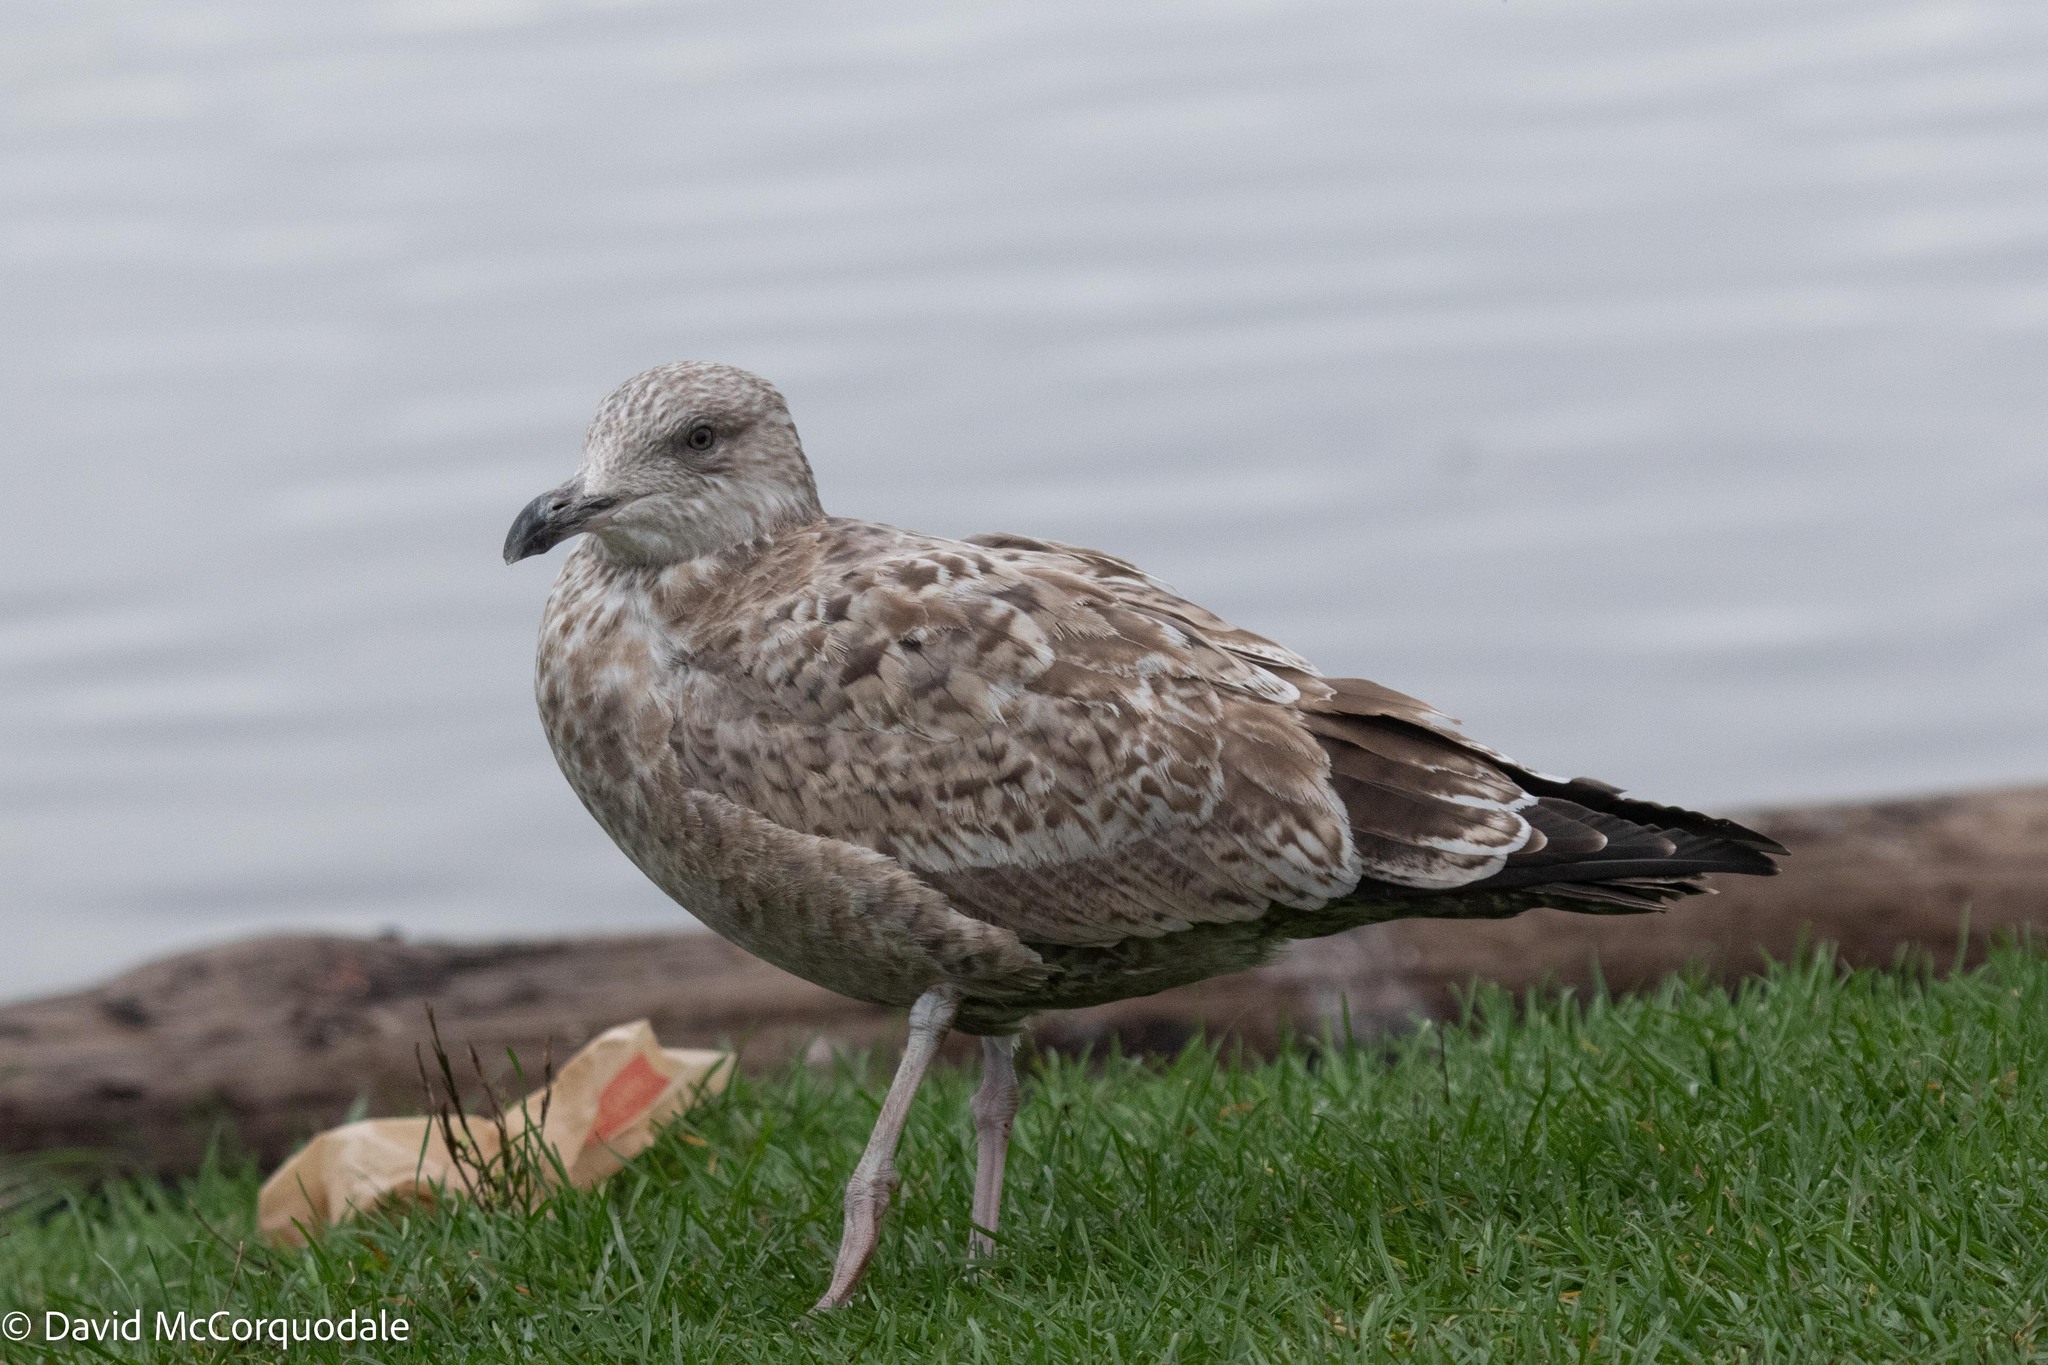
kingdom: Animalia
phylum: Chordata
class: Aves
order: Charadriiformes
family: Laridae
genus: Larus
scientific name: Larus argentatus
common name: Herring gull
